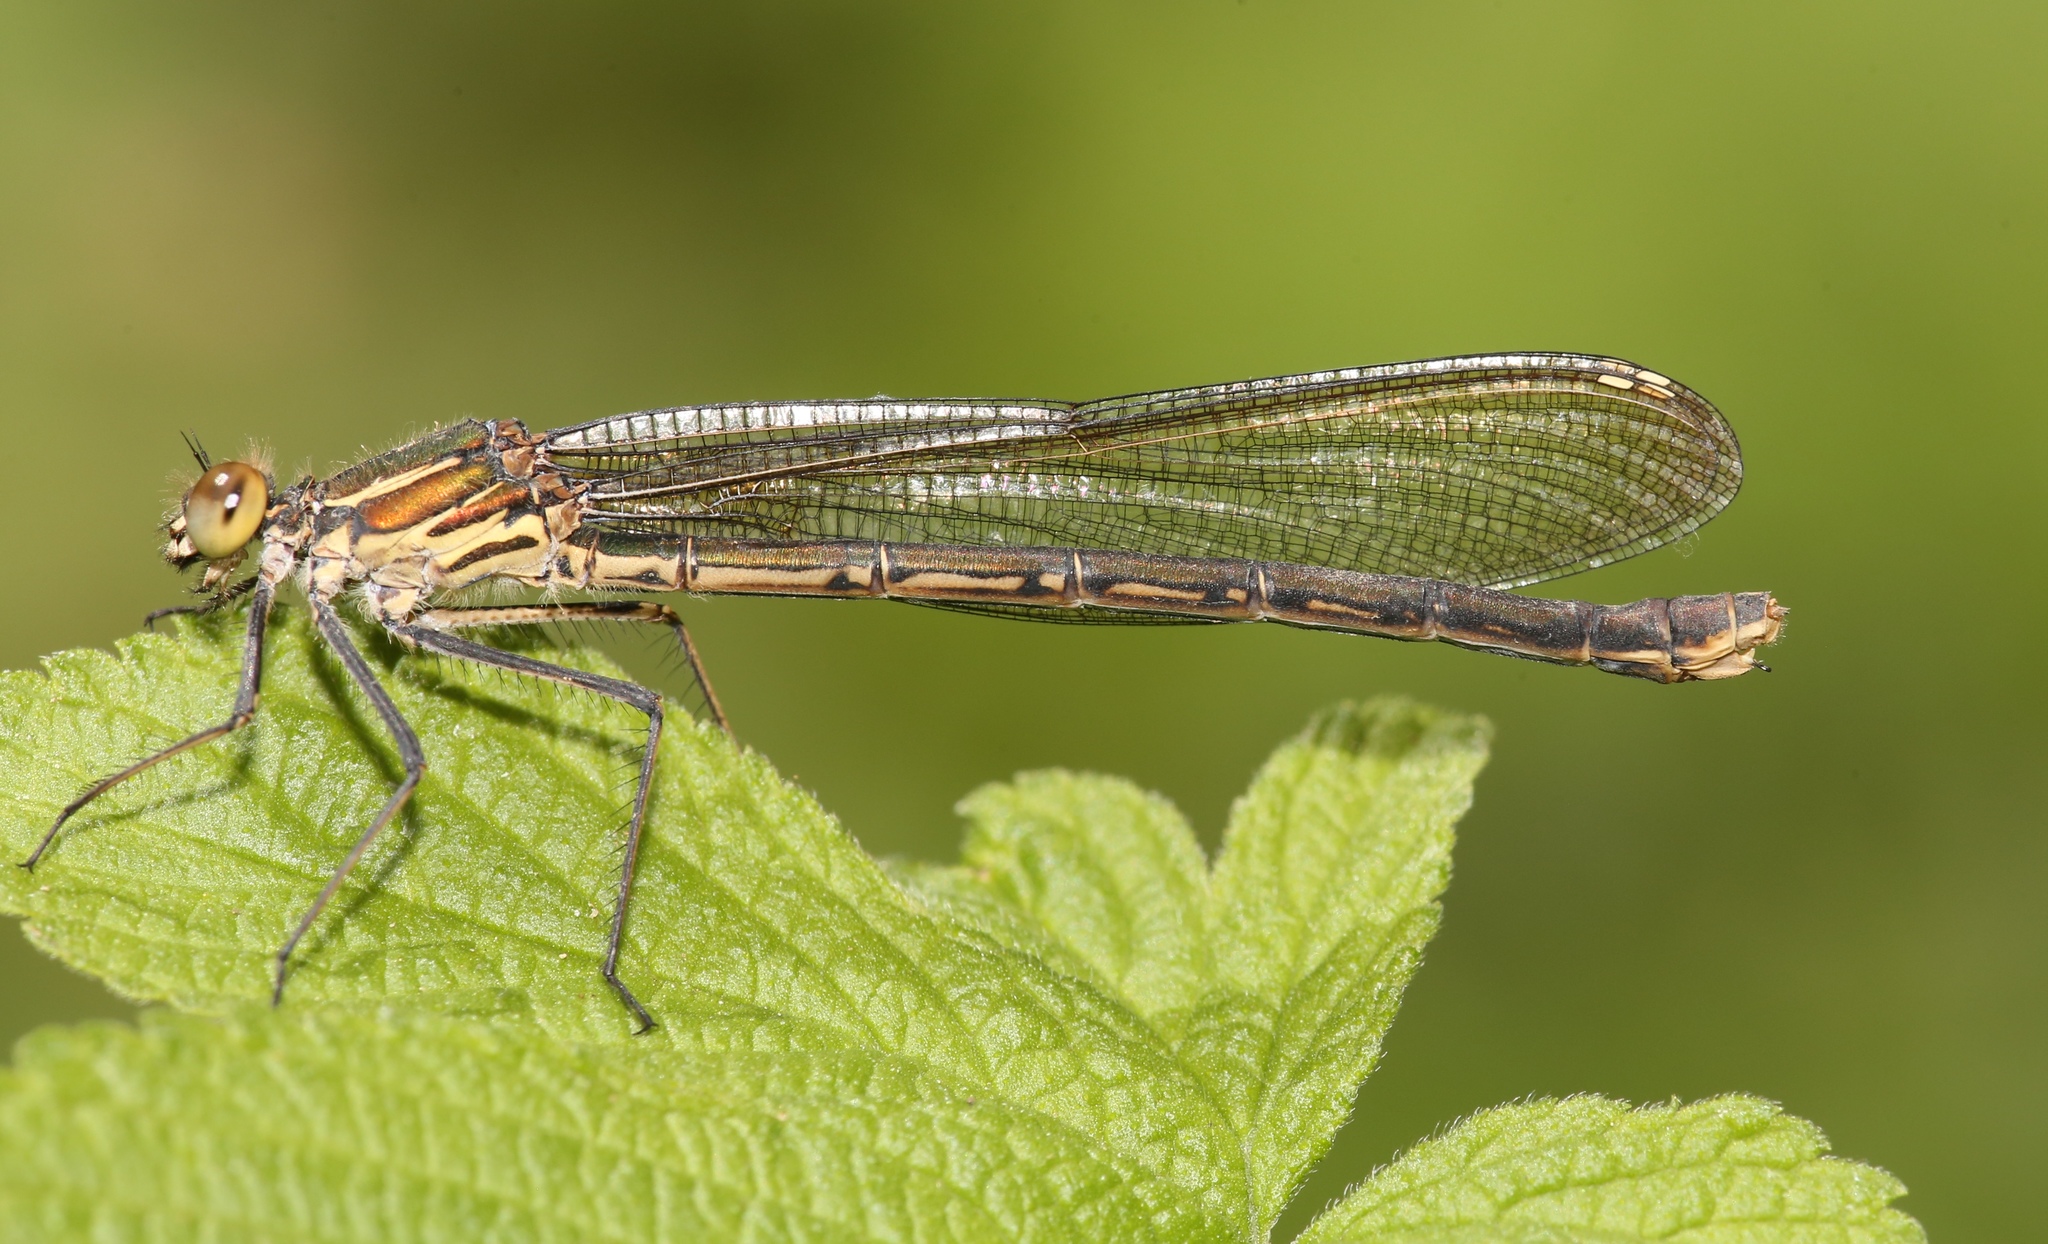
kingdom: Animalia
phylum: Arthropoda
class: Insecta
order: Odonata
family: Calopterygidae
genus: Hetaerina
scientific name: Hetaerina americana
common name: American rubyspot
